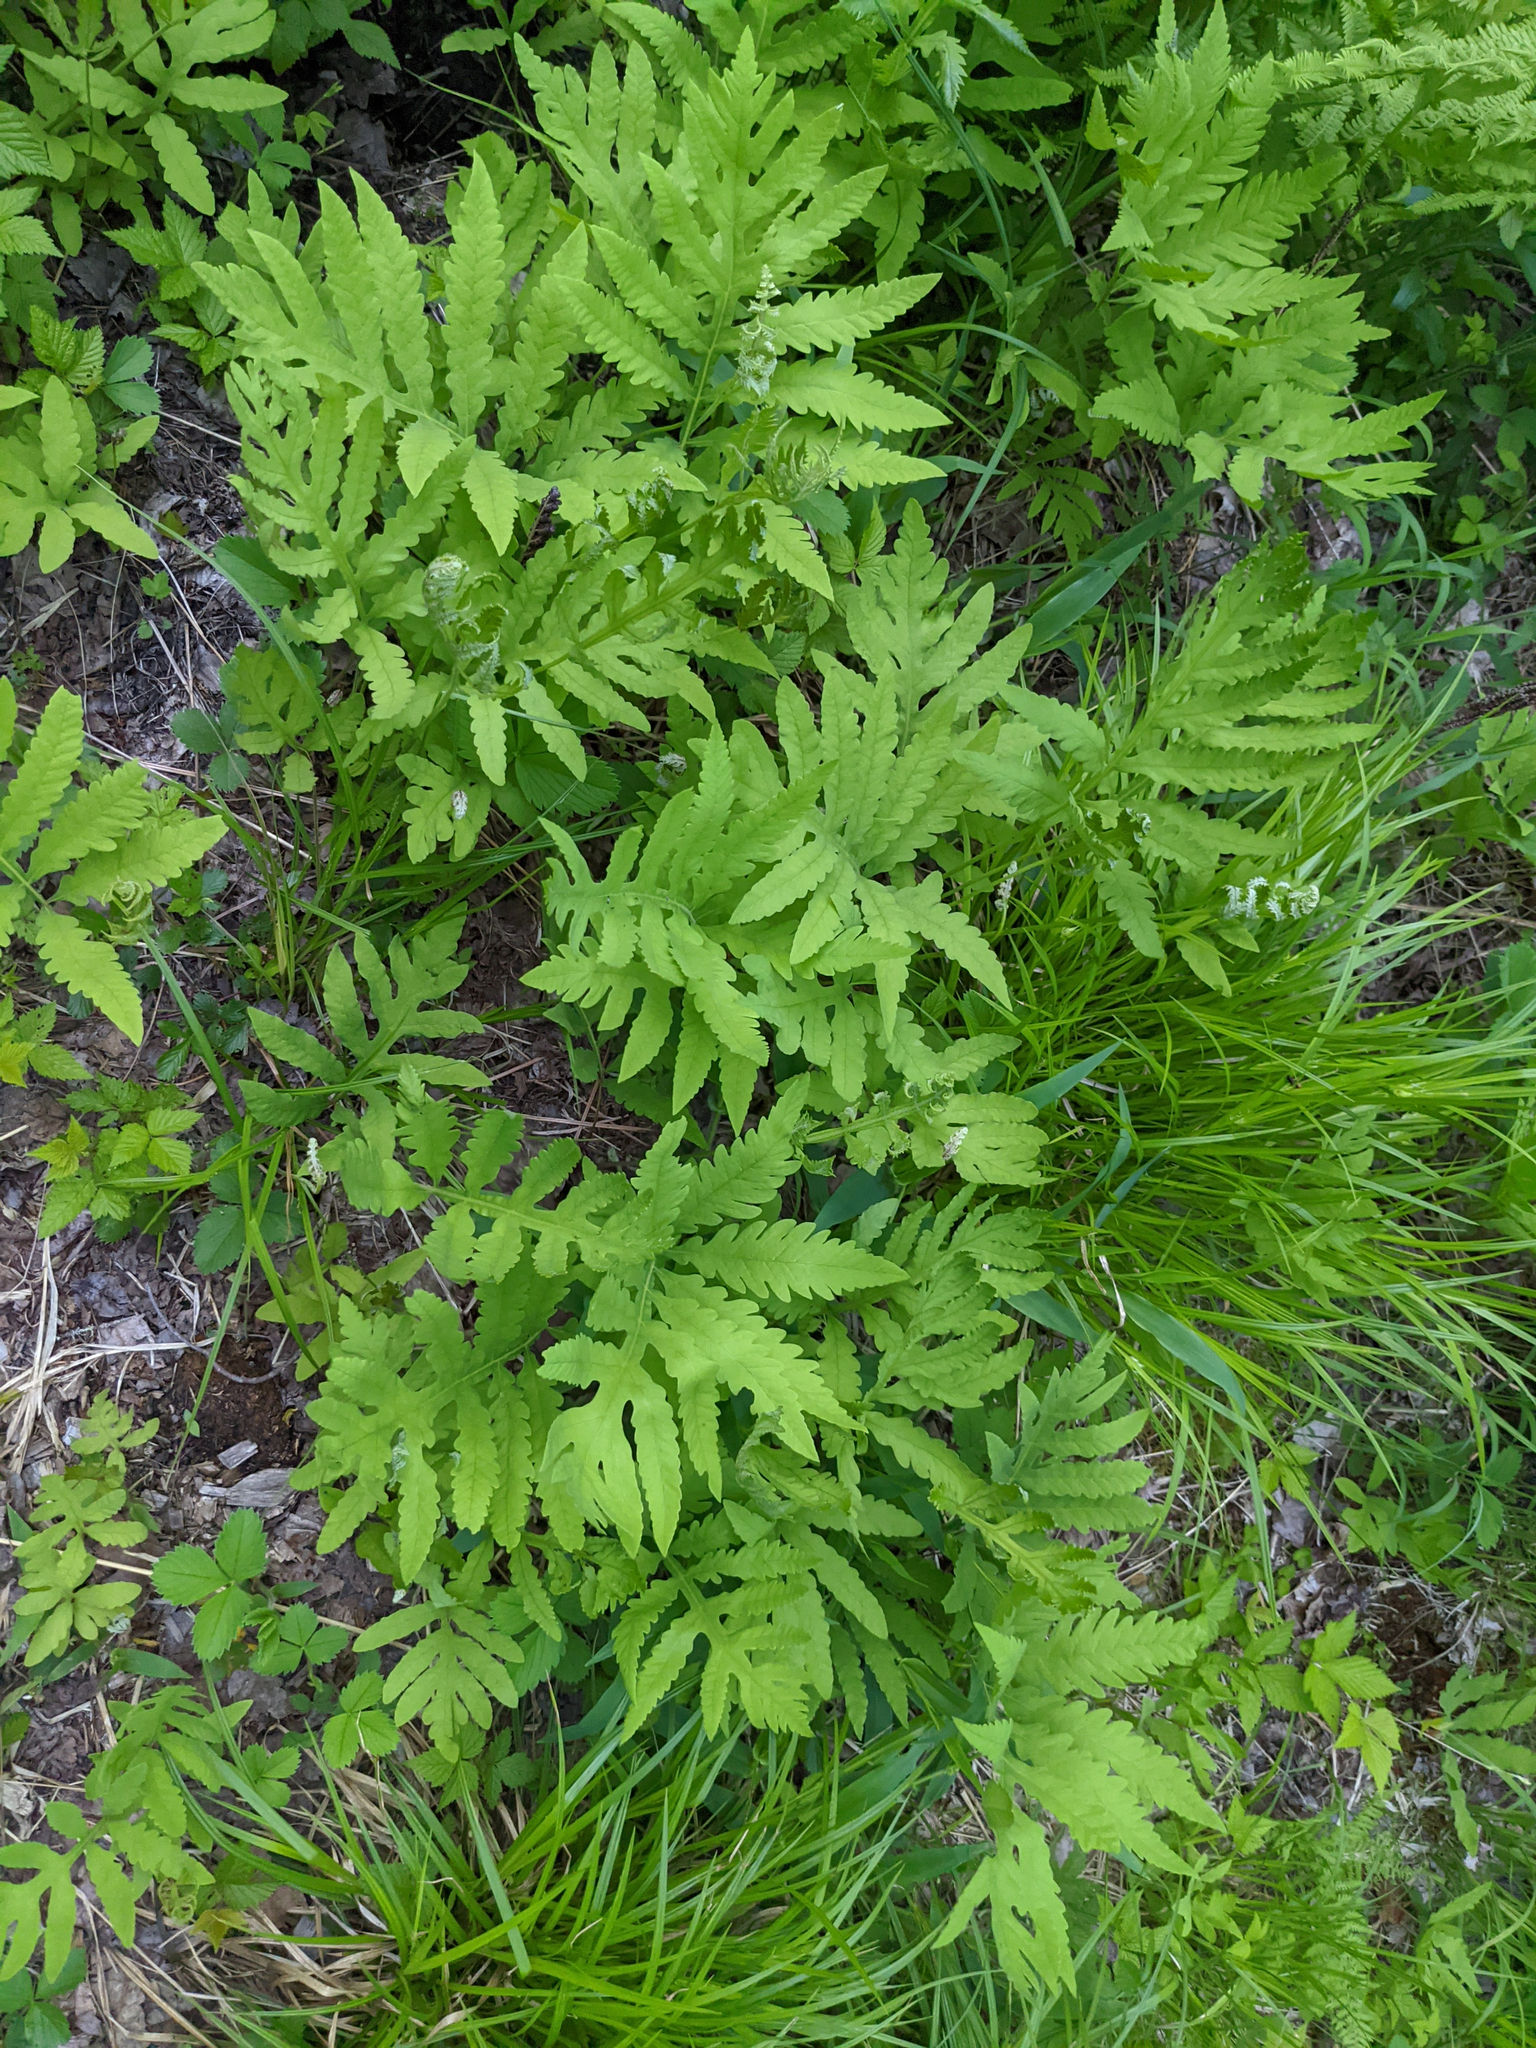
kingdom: Plantae
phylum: Tracheophyta
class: Polypodiopsida
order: Polypodiales
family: Onocleaceae
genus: Onoclea
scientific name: Onoclea sensibilis
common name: Sensitive fern
